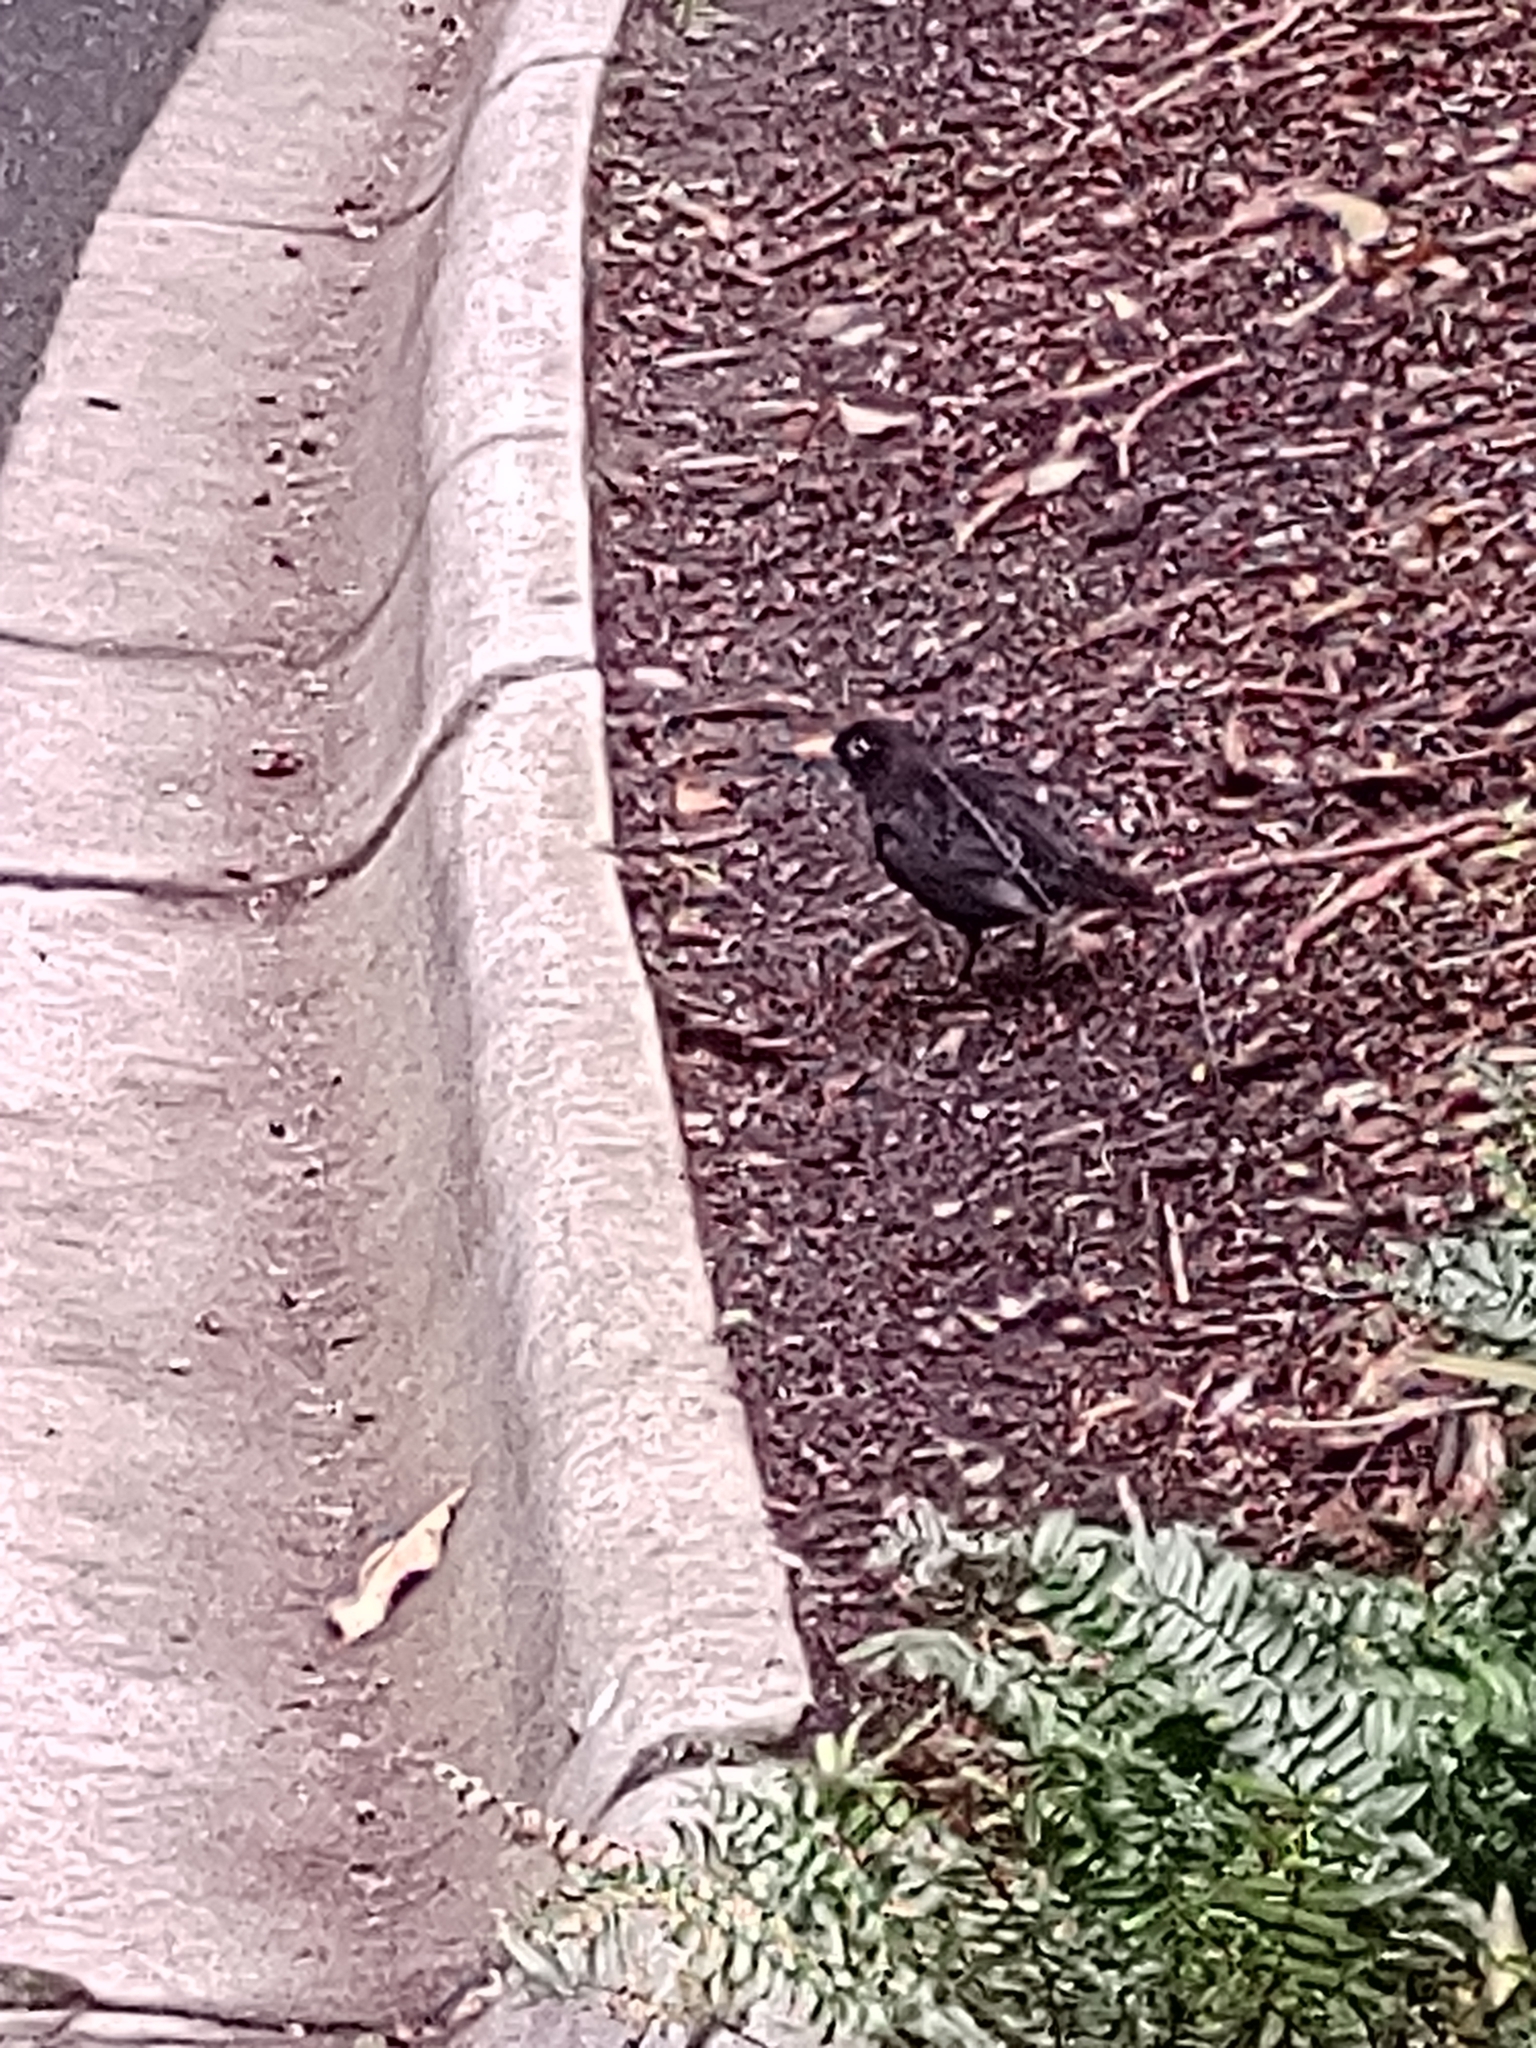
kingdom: Animalia
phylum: Chordata
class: Aves
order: Passeriformes
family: Turdidae
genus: Turdus
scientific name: Turdus merula
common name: Common blackbird
